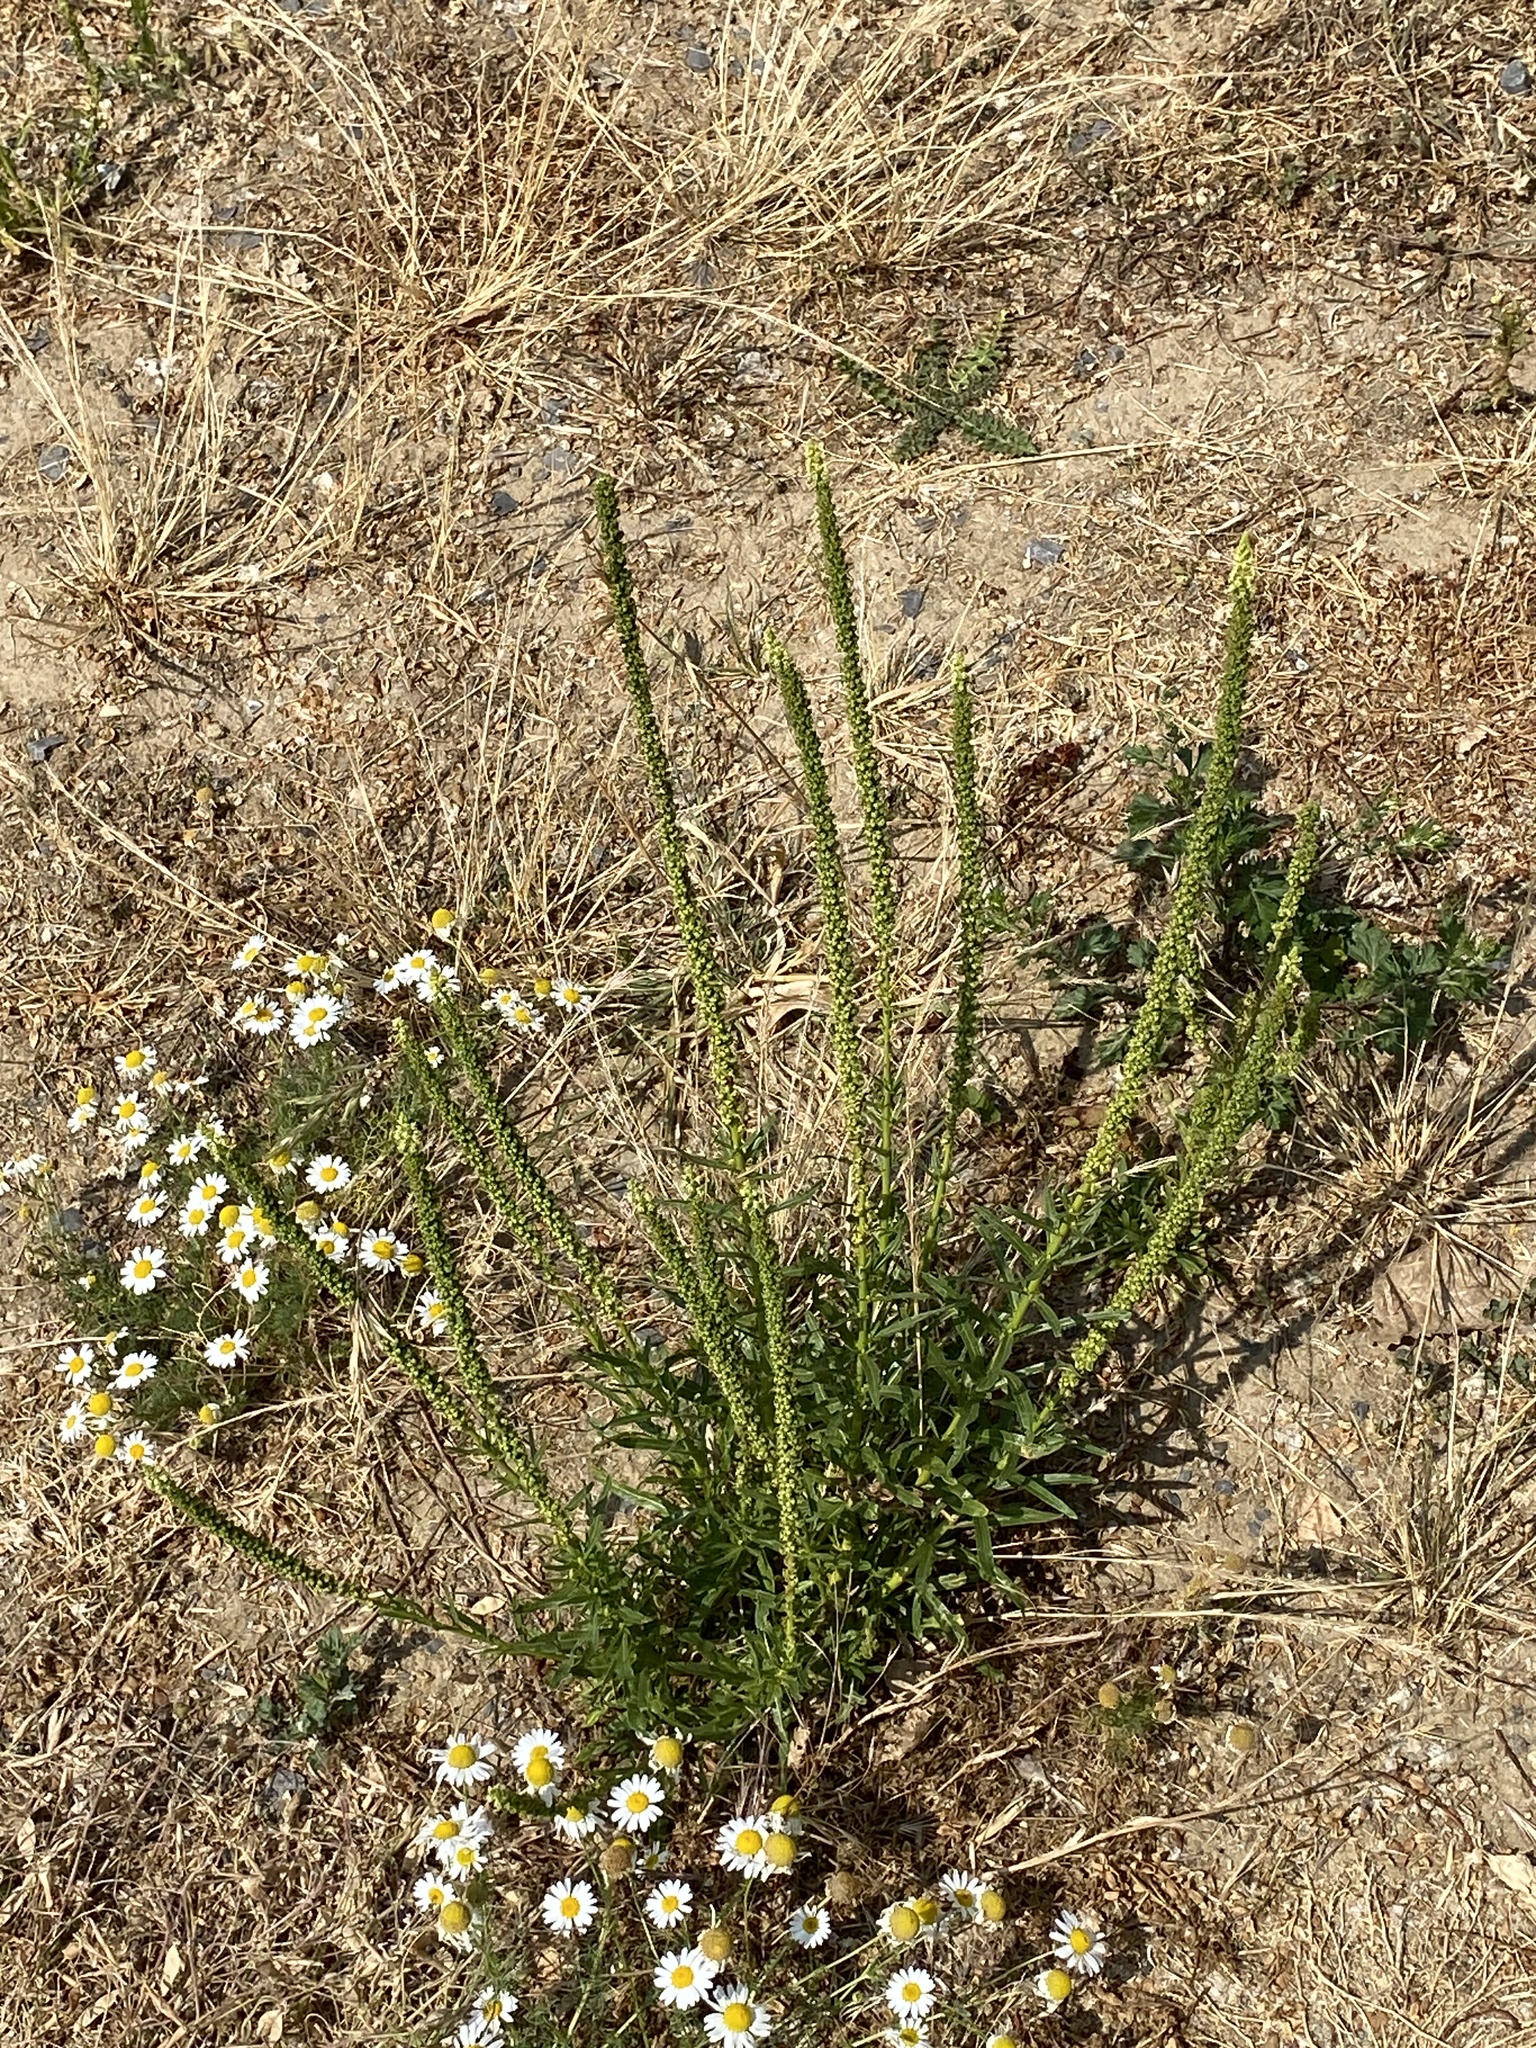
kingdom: Plantae
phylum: Tracheophyta
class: Magnoliopsida
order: Brassicales
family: Resedaceae
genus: Reseda
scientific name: Reseda luteola
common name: Weld
